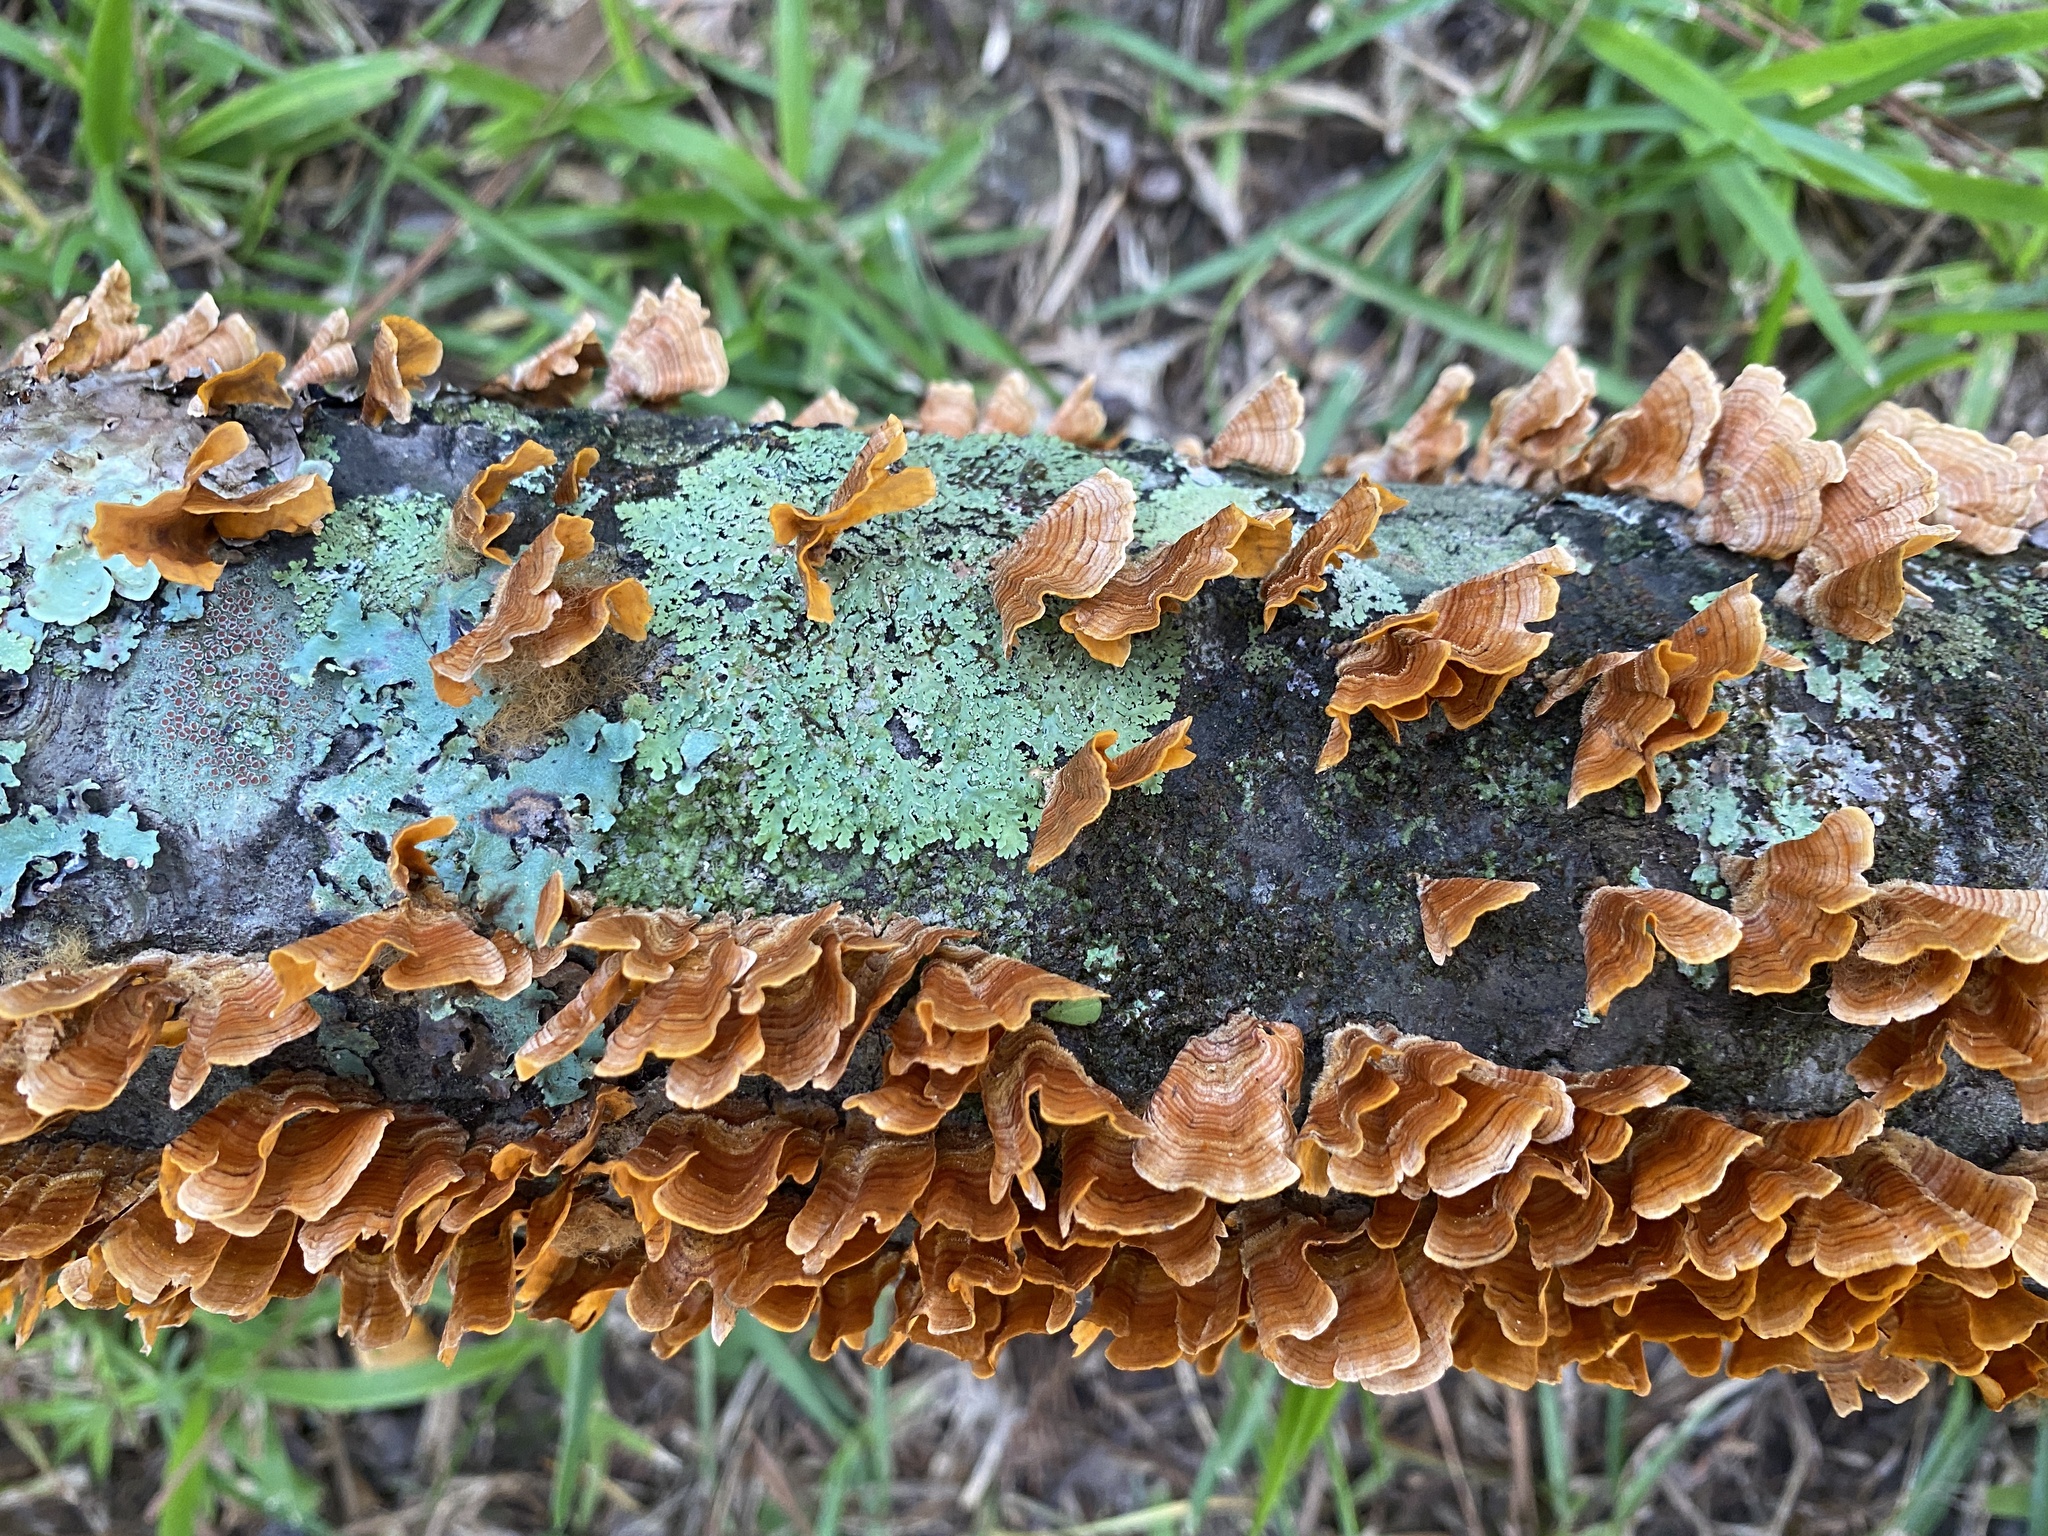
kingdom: Fungi
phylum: Basidiomycota
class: Agaricomycetes
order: Russulales
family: Stereaceae
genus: Stereum
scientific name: Stereum complicatum
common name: Crowded parchment
